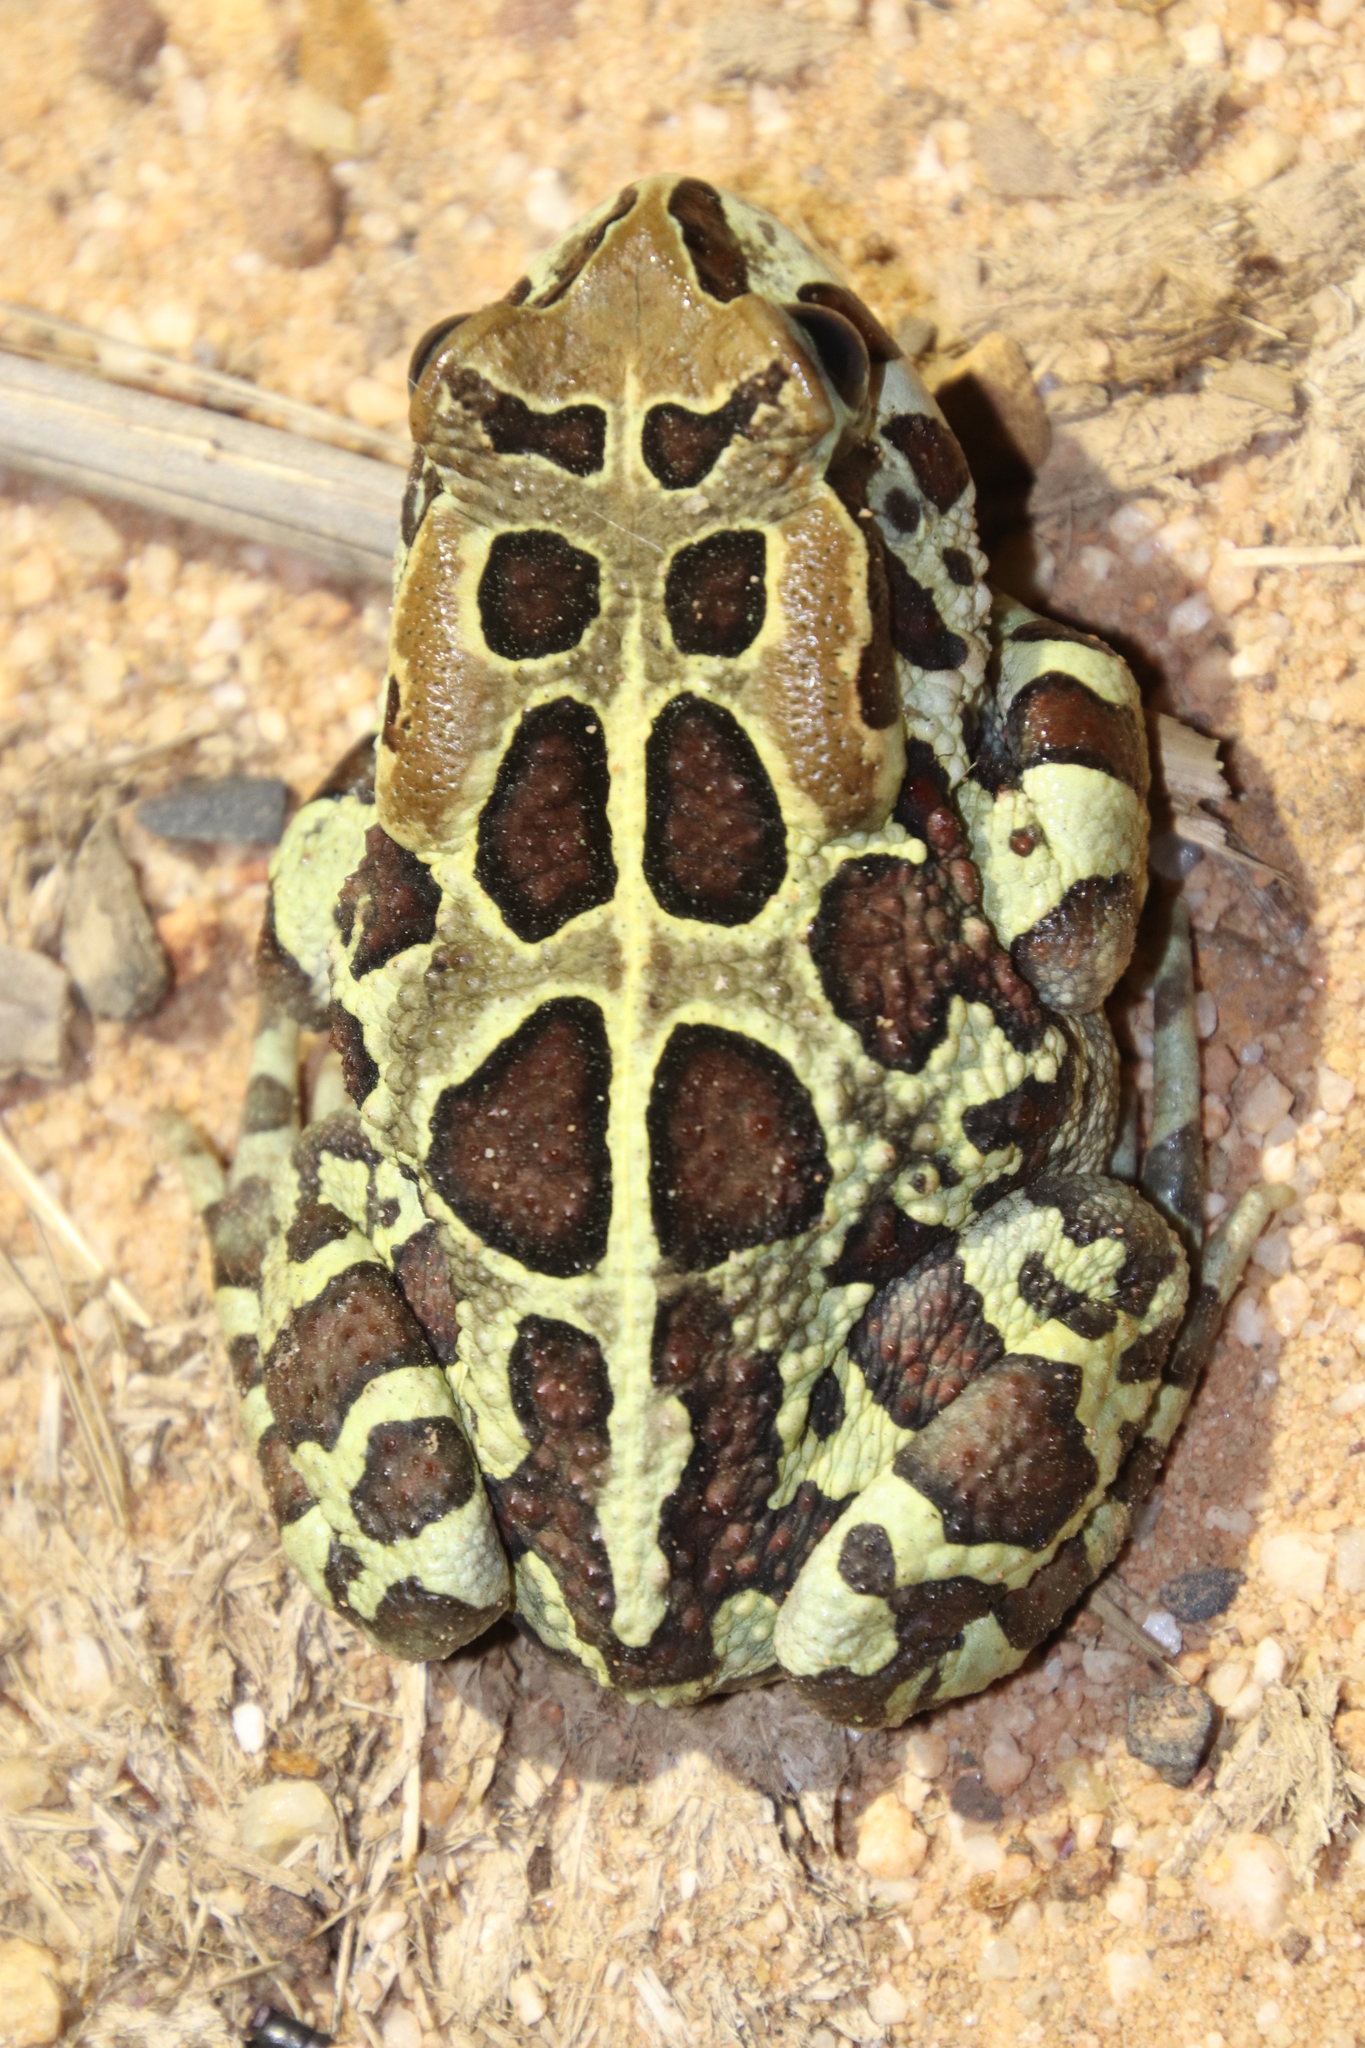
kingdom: Animalia
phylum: Chordata
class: Amphibia
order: Anura
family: Bufonidae
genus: Sclerophrys
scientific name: Sclerophrys pantherina
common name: Panther toad
